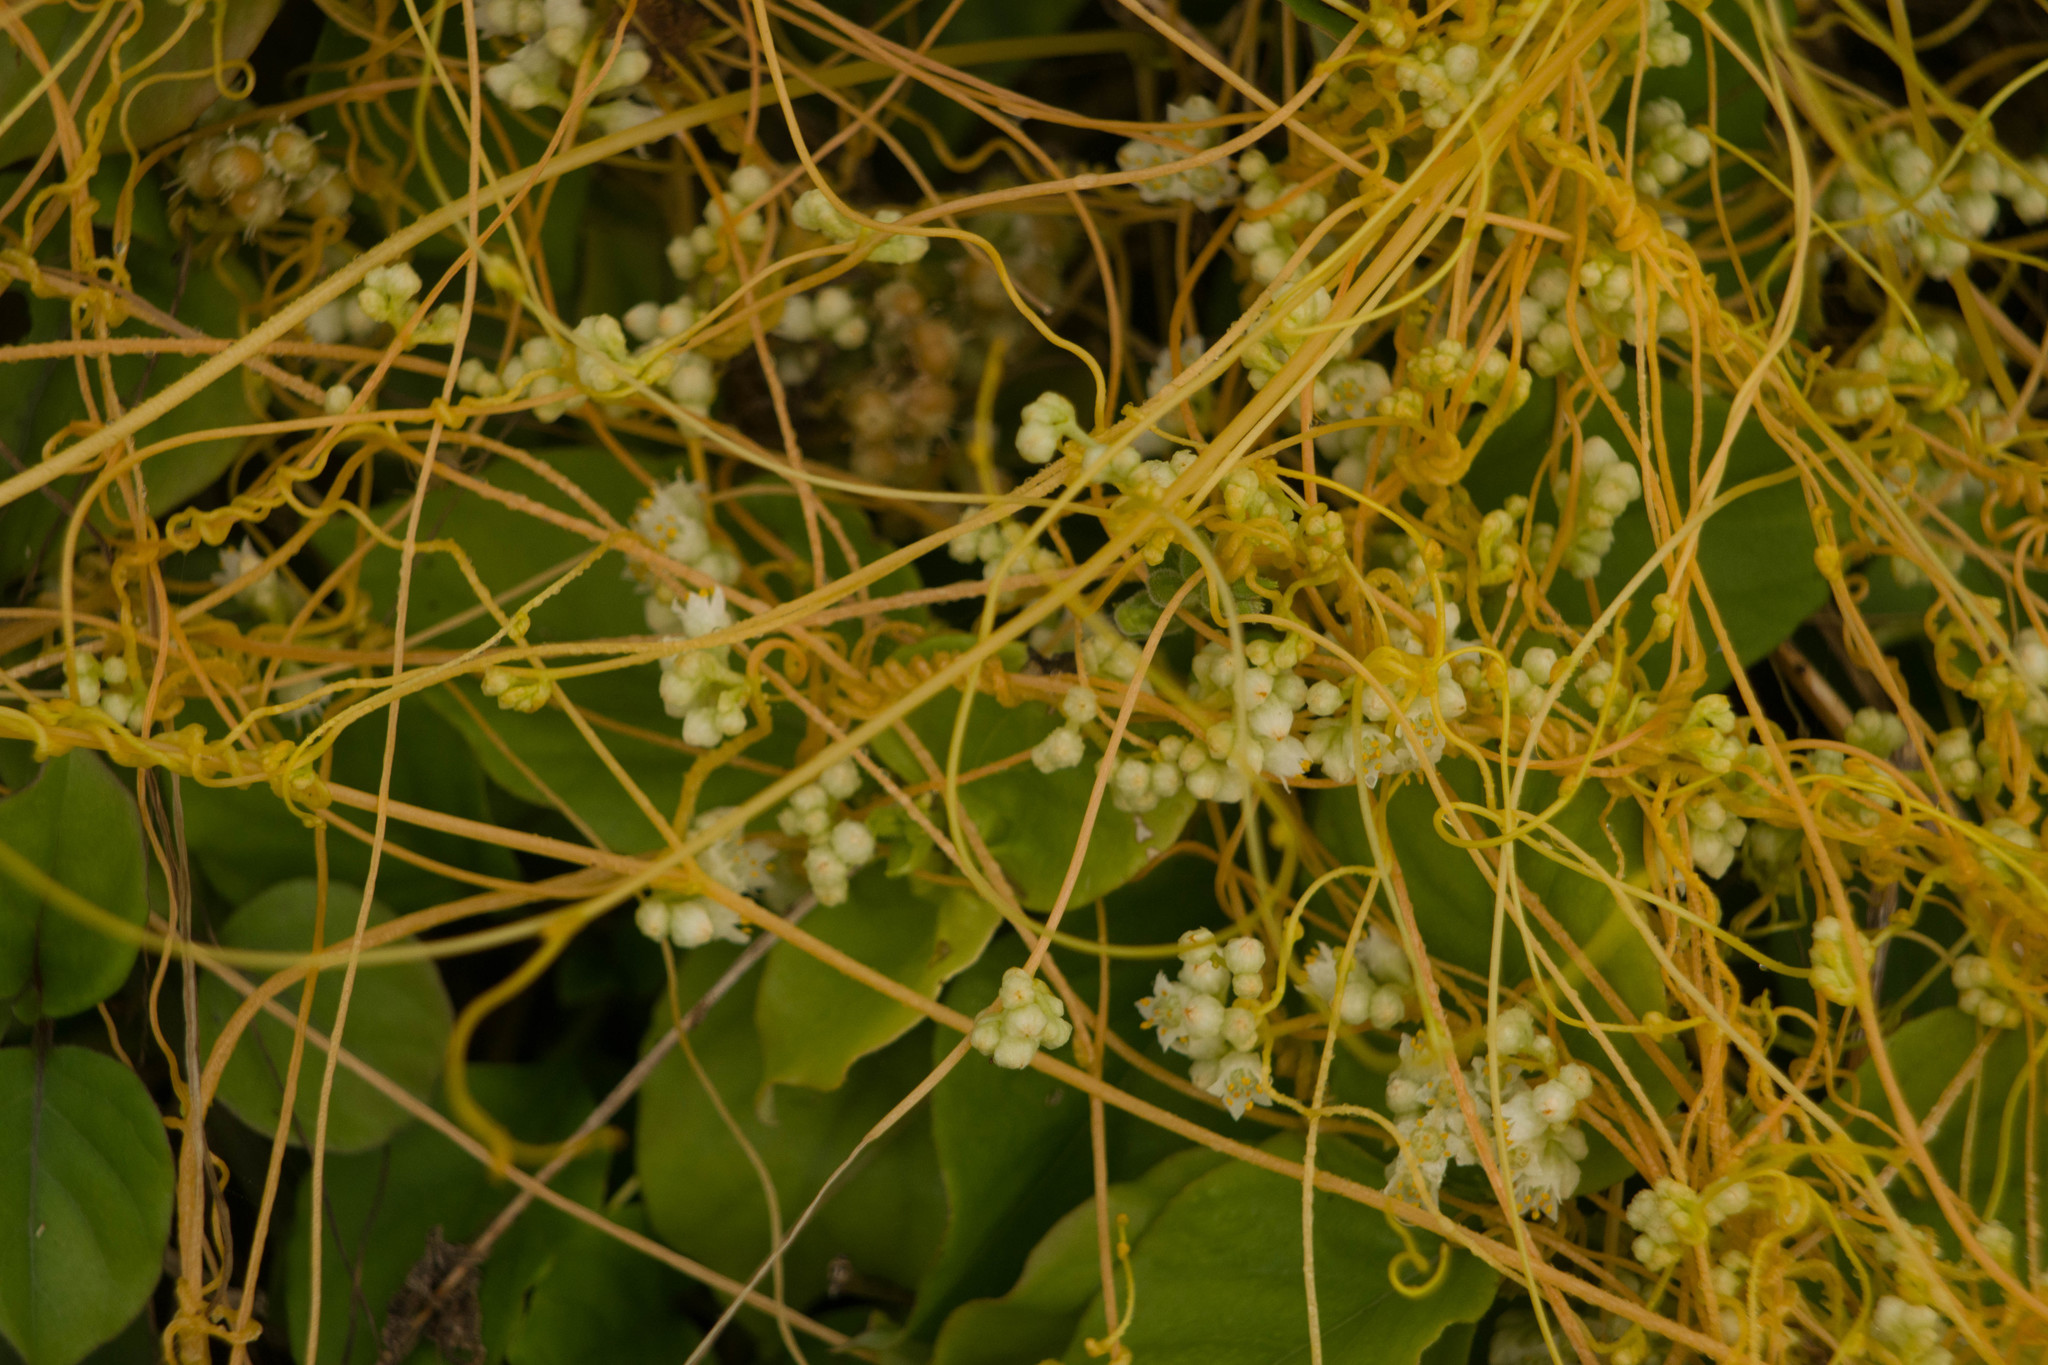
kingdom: Plantae
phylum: Tracheophyta
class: Magnoliopsida
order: Solanales
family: Convolvulaceae
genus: Cuscuta
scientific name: Cuscuta campestris
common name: Yellow dodder
